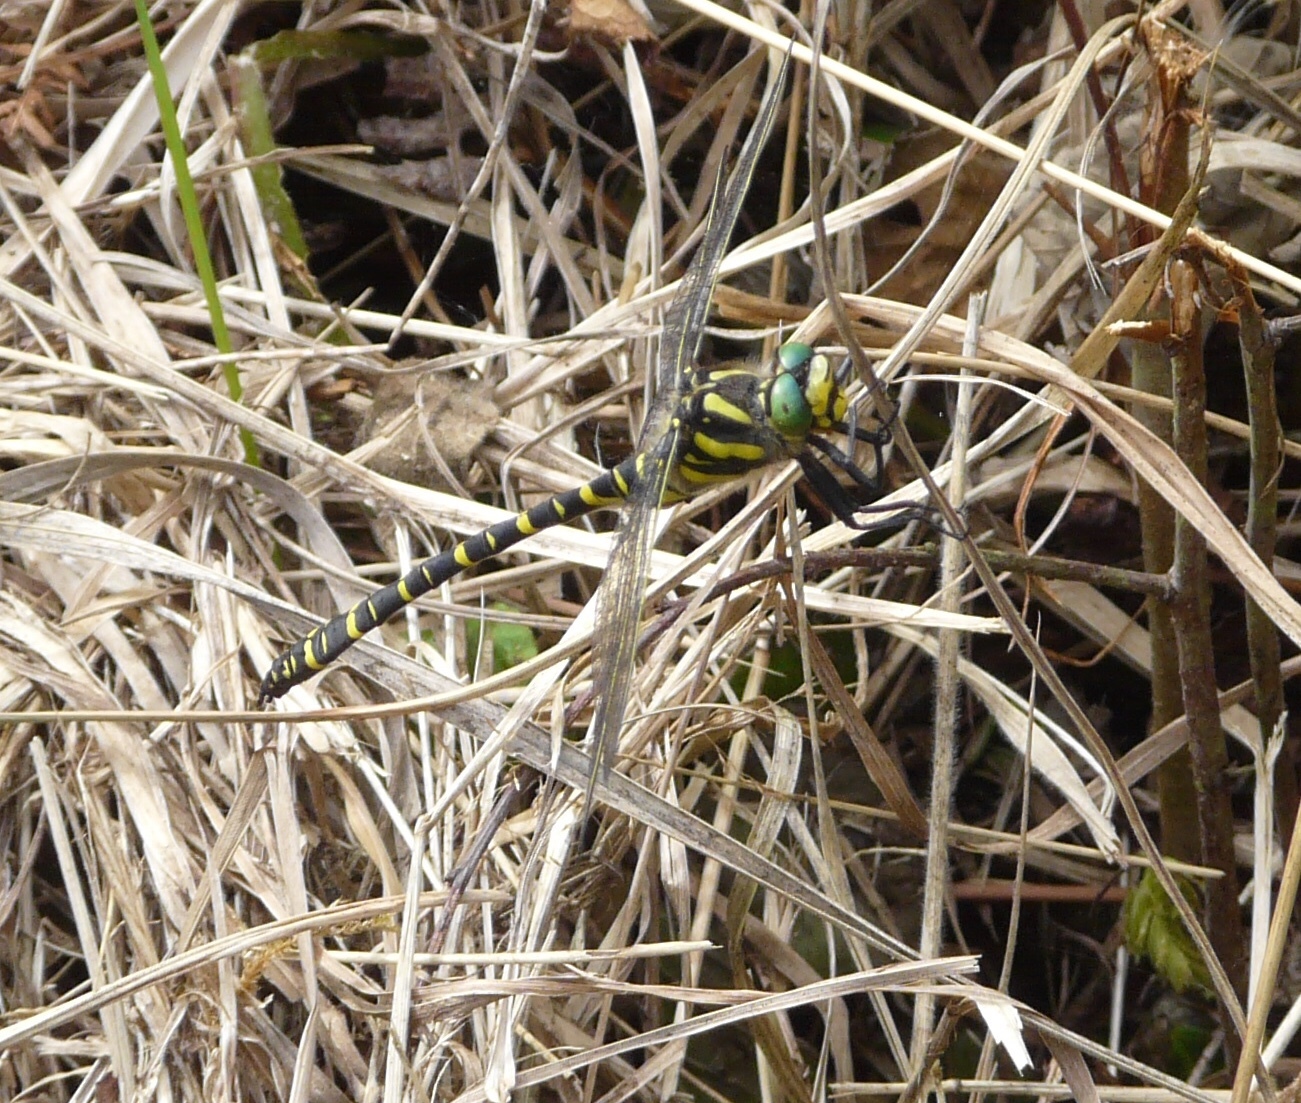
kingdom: Animalia
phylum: Arthropoda
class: Insecta
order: Odonata
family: Cordulegastridae
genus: Cordulegaster
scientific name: Cordulegaster boltonii
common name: Golden-ringed dragonfly
